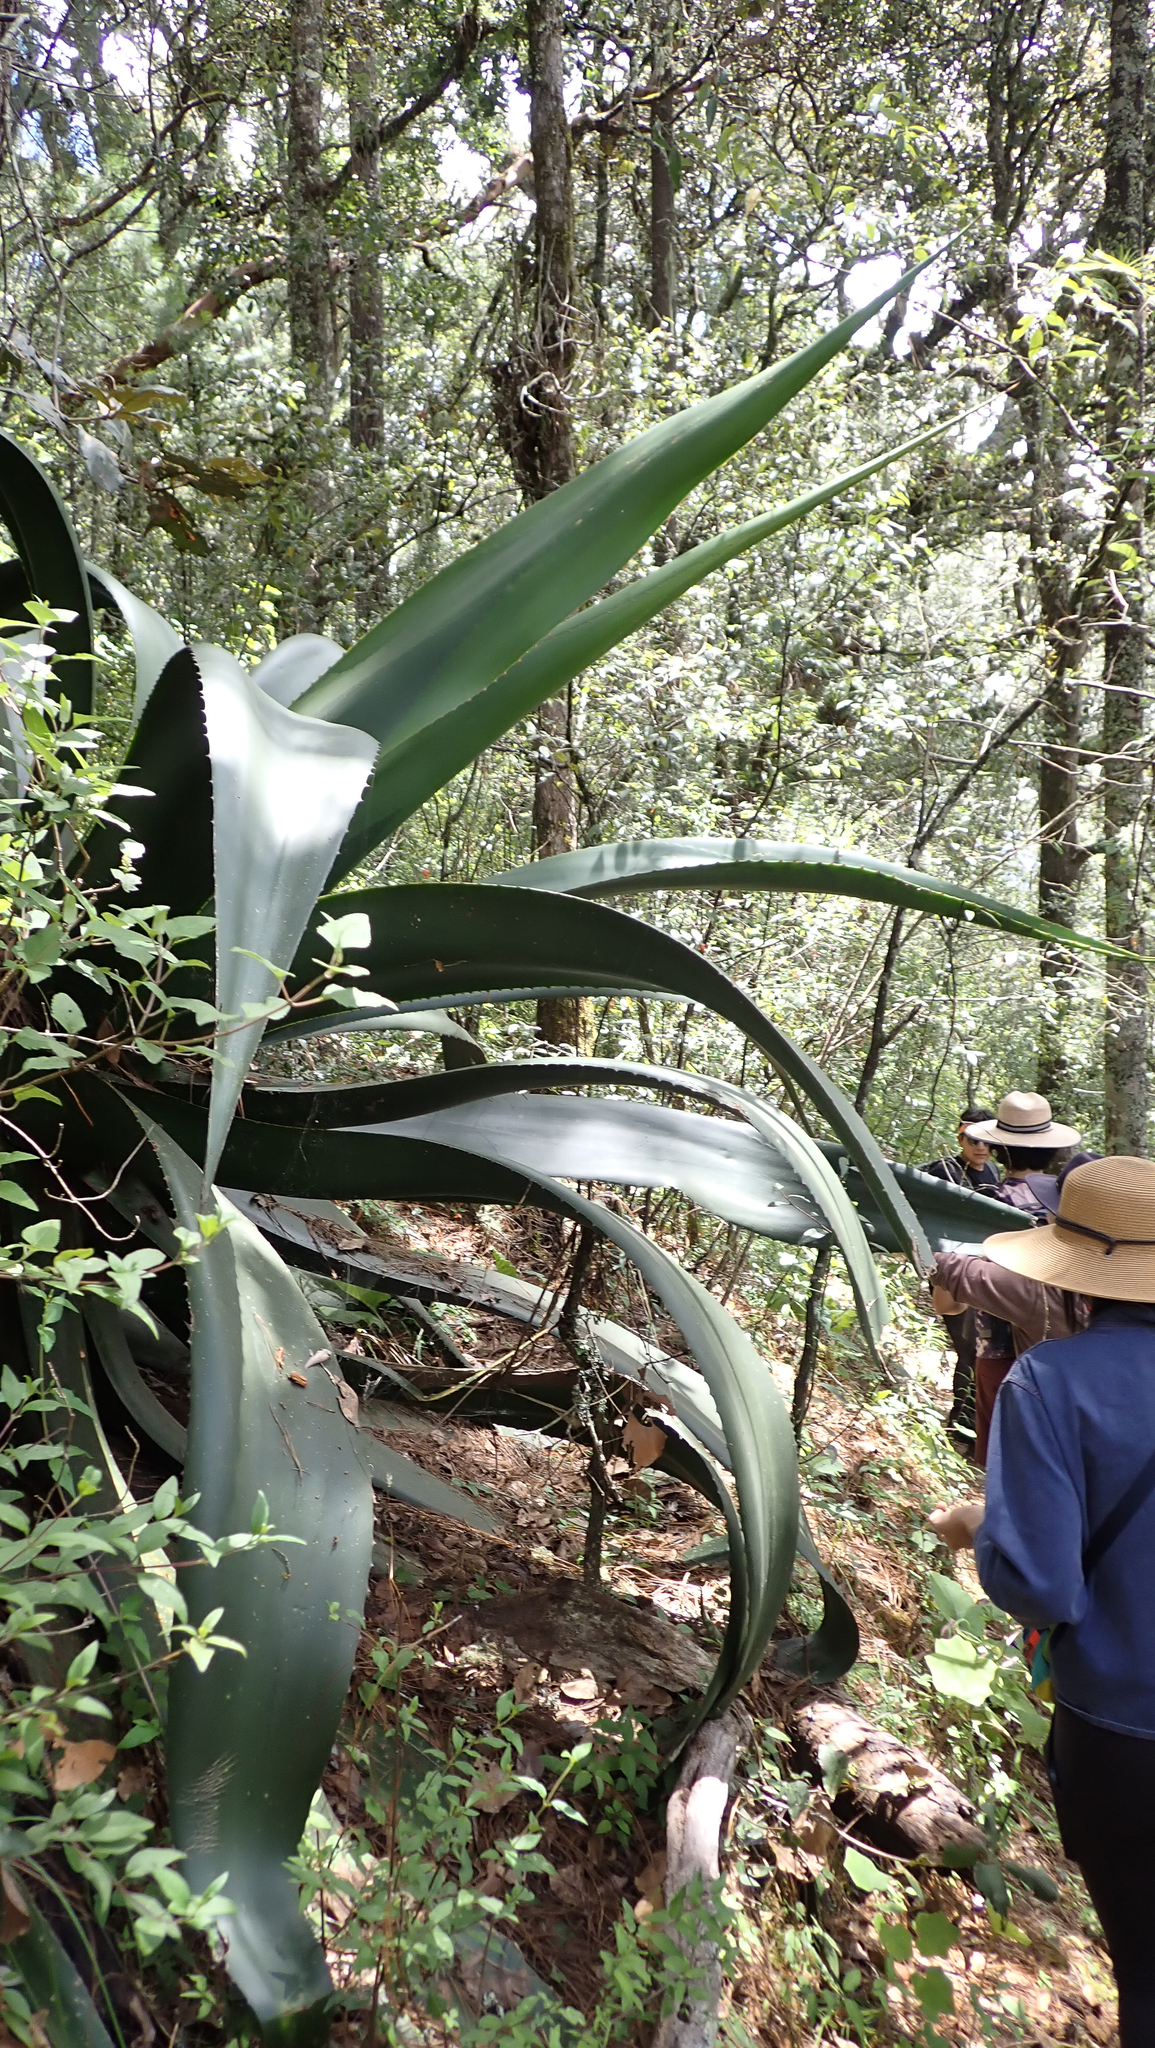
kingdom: Plantae
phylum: Tracheophyta
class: Liliopsida
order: Asparagales
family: Asparagaceae
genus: Agave
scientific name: Agave atrovirens
